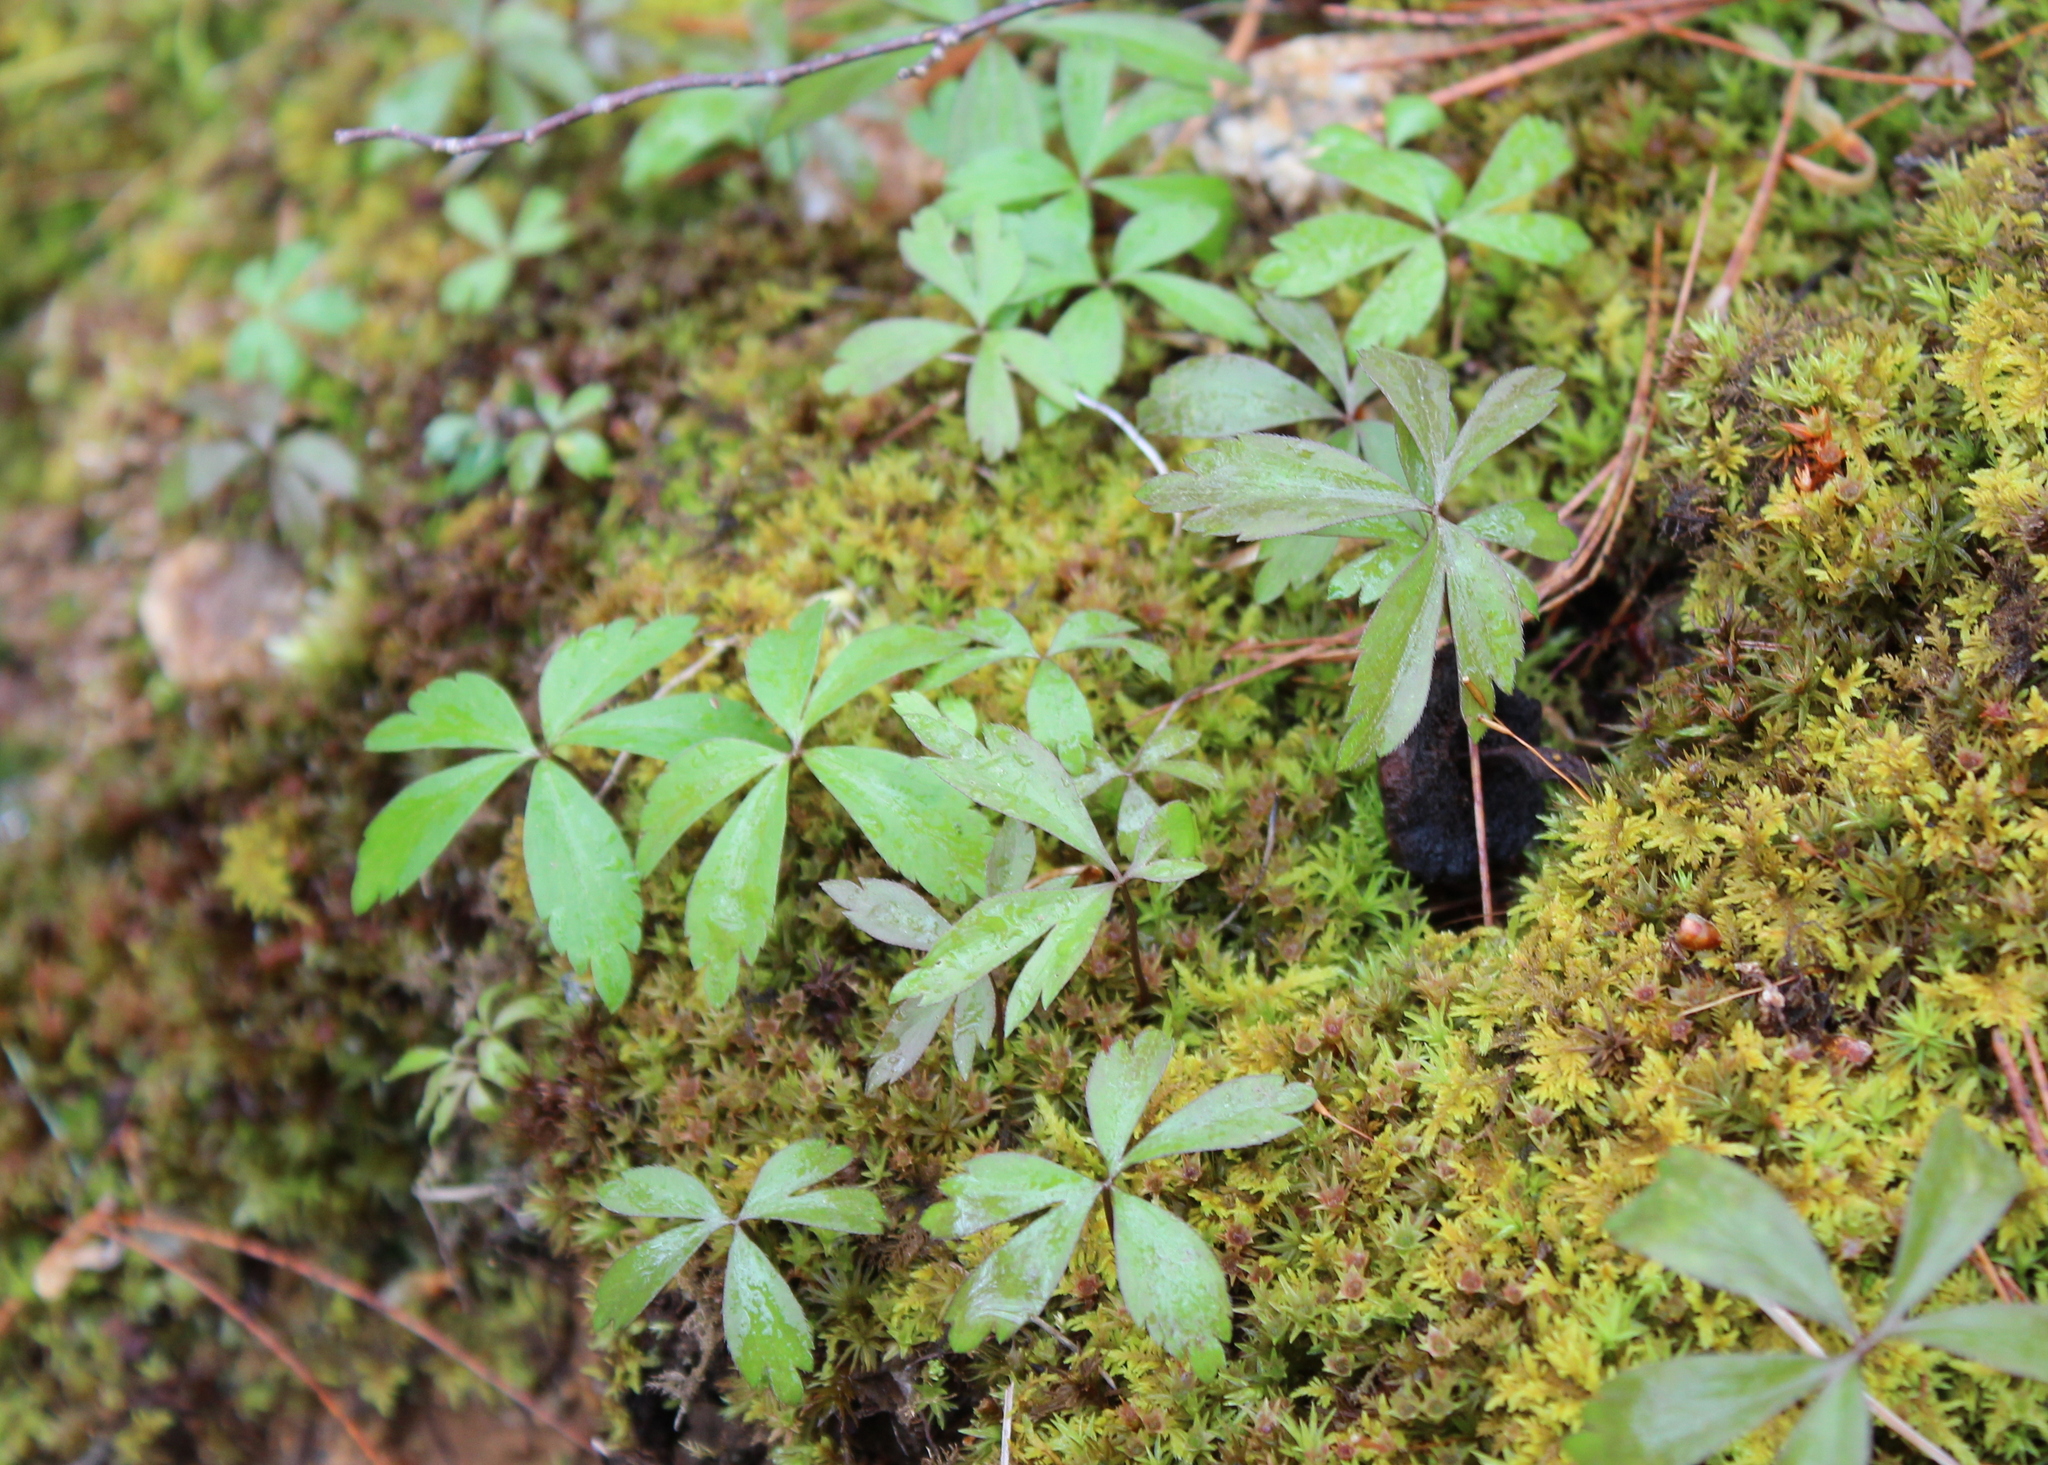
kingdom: Plantae
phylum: Tracheophyta
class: Magnoliopsida
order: Ranunculales
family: Ranunculaceae
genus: Anemone
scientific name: Anemone quinquefolia
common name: Wood anemone
